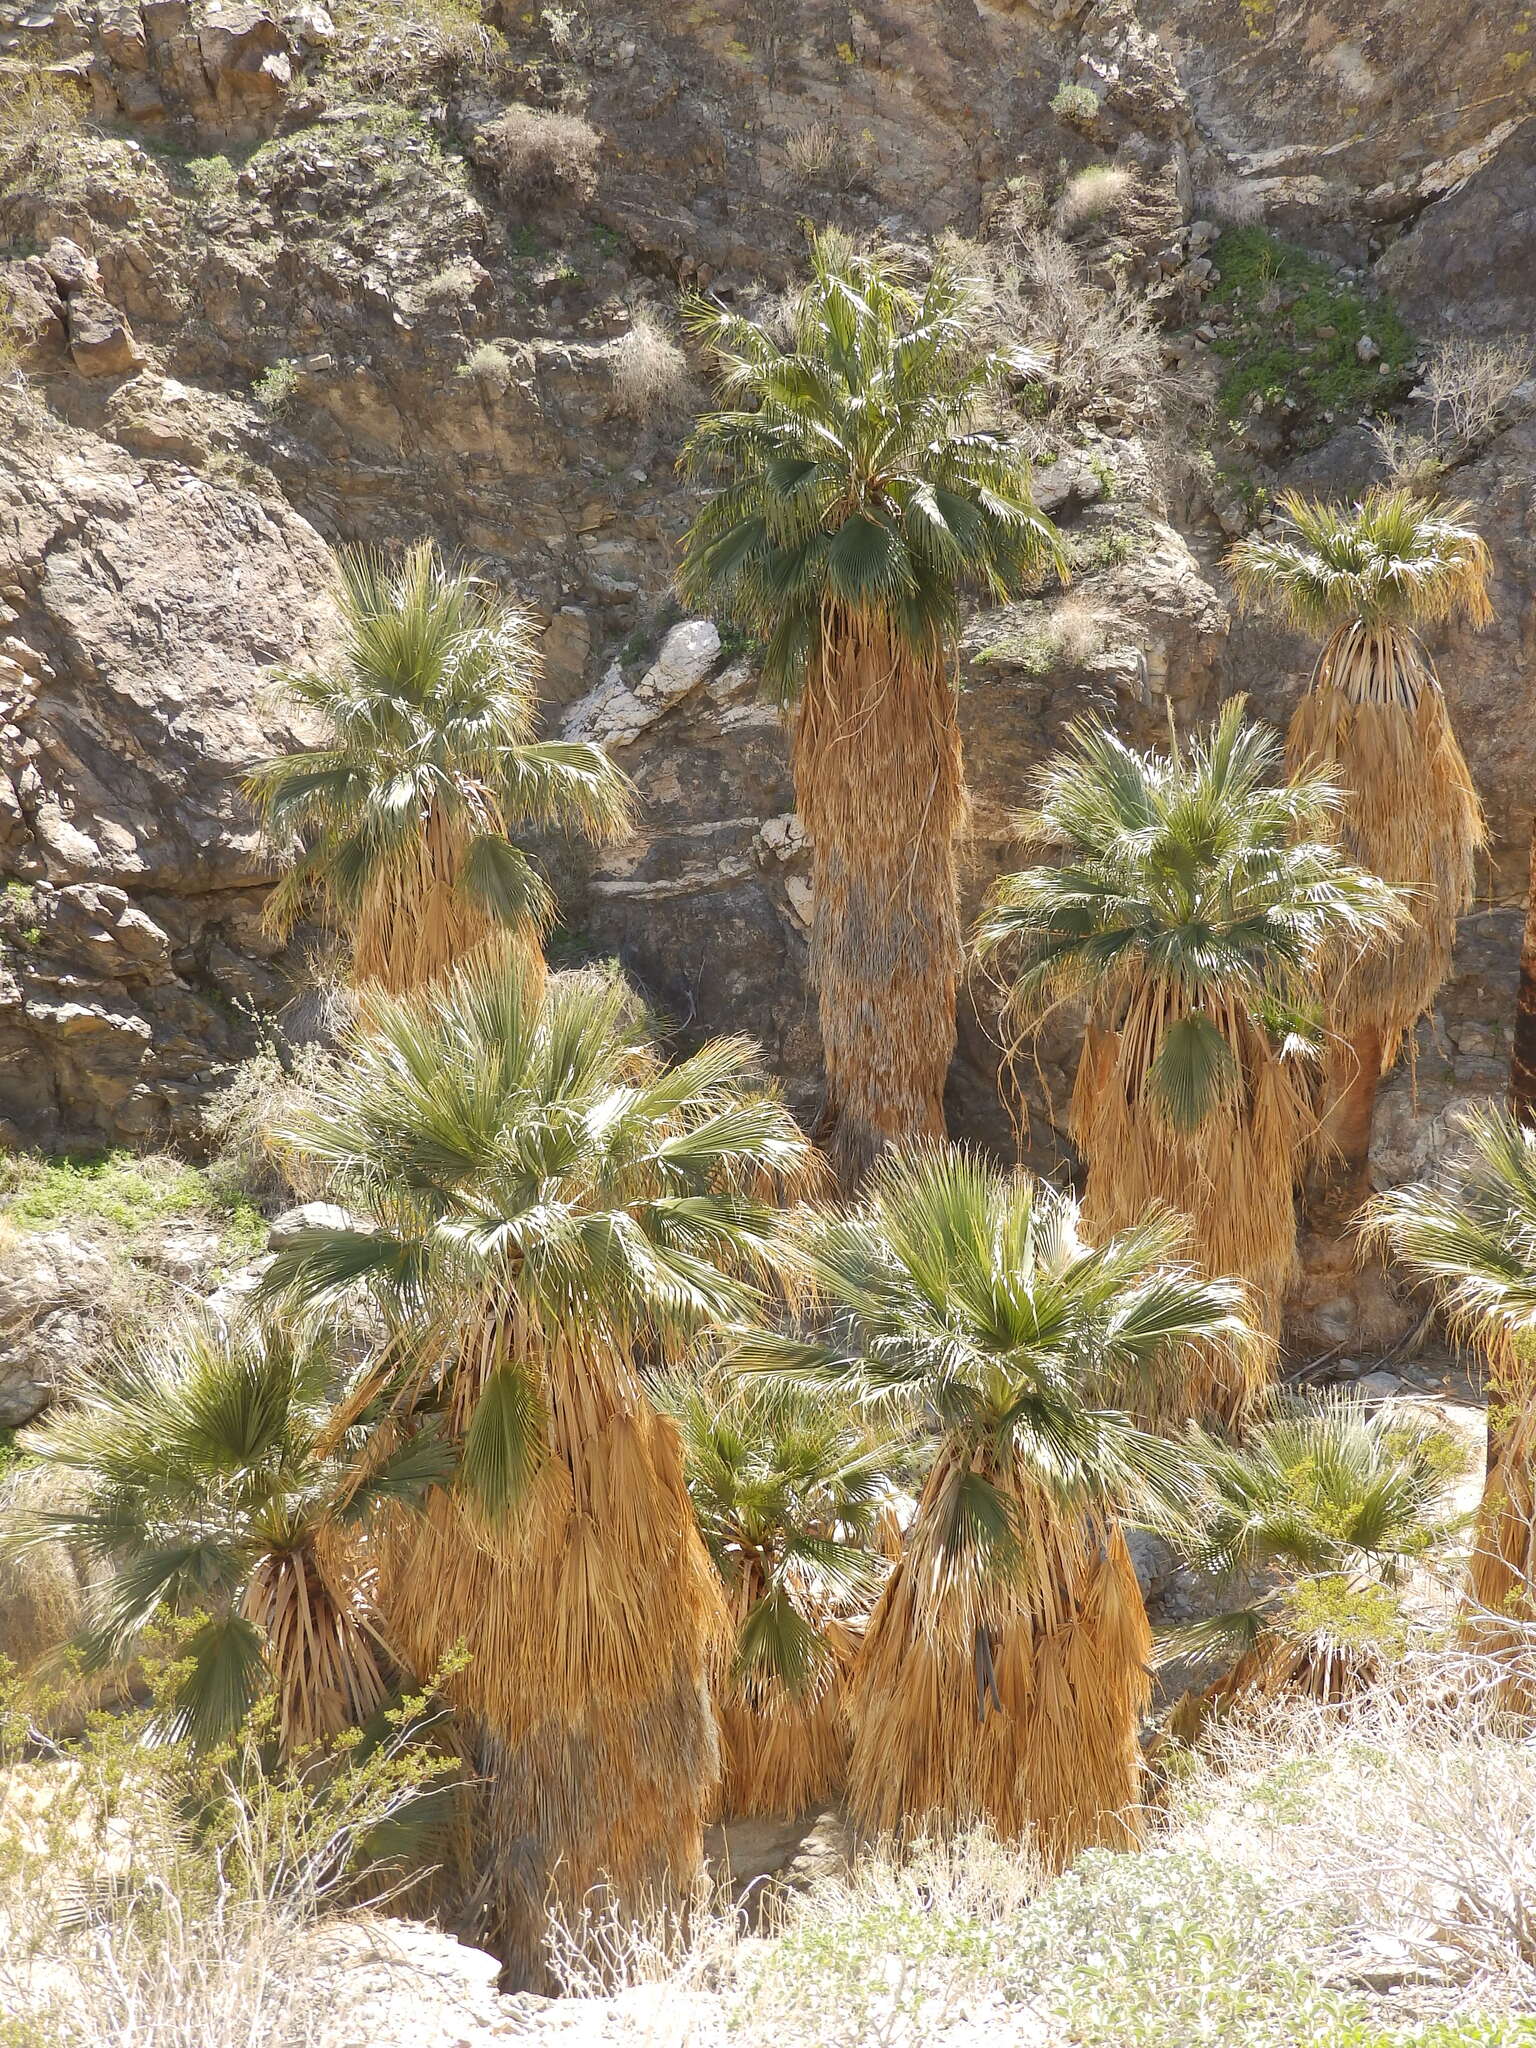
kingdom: Plantae
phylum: Tracheophyta
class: Liliopsida
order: Arecales
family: Arecaceae
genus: Washingtonia
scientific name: Washingtonia filifera
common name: California fan palm
